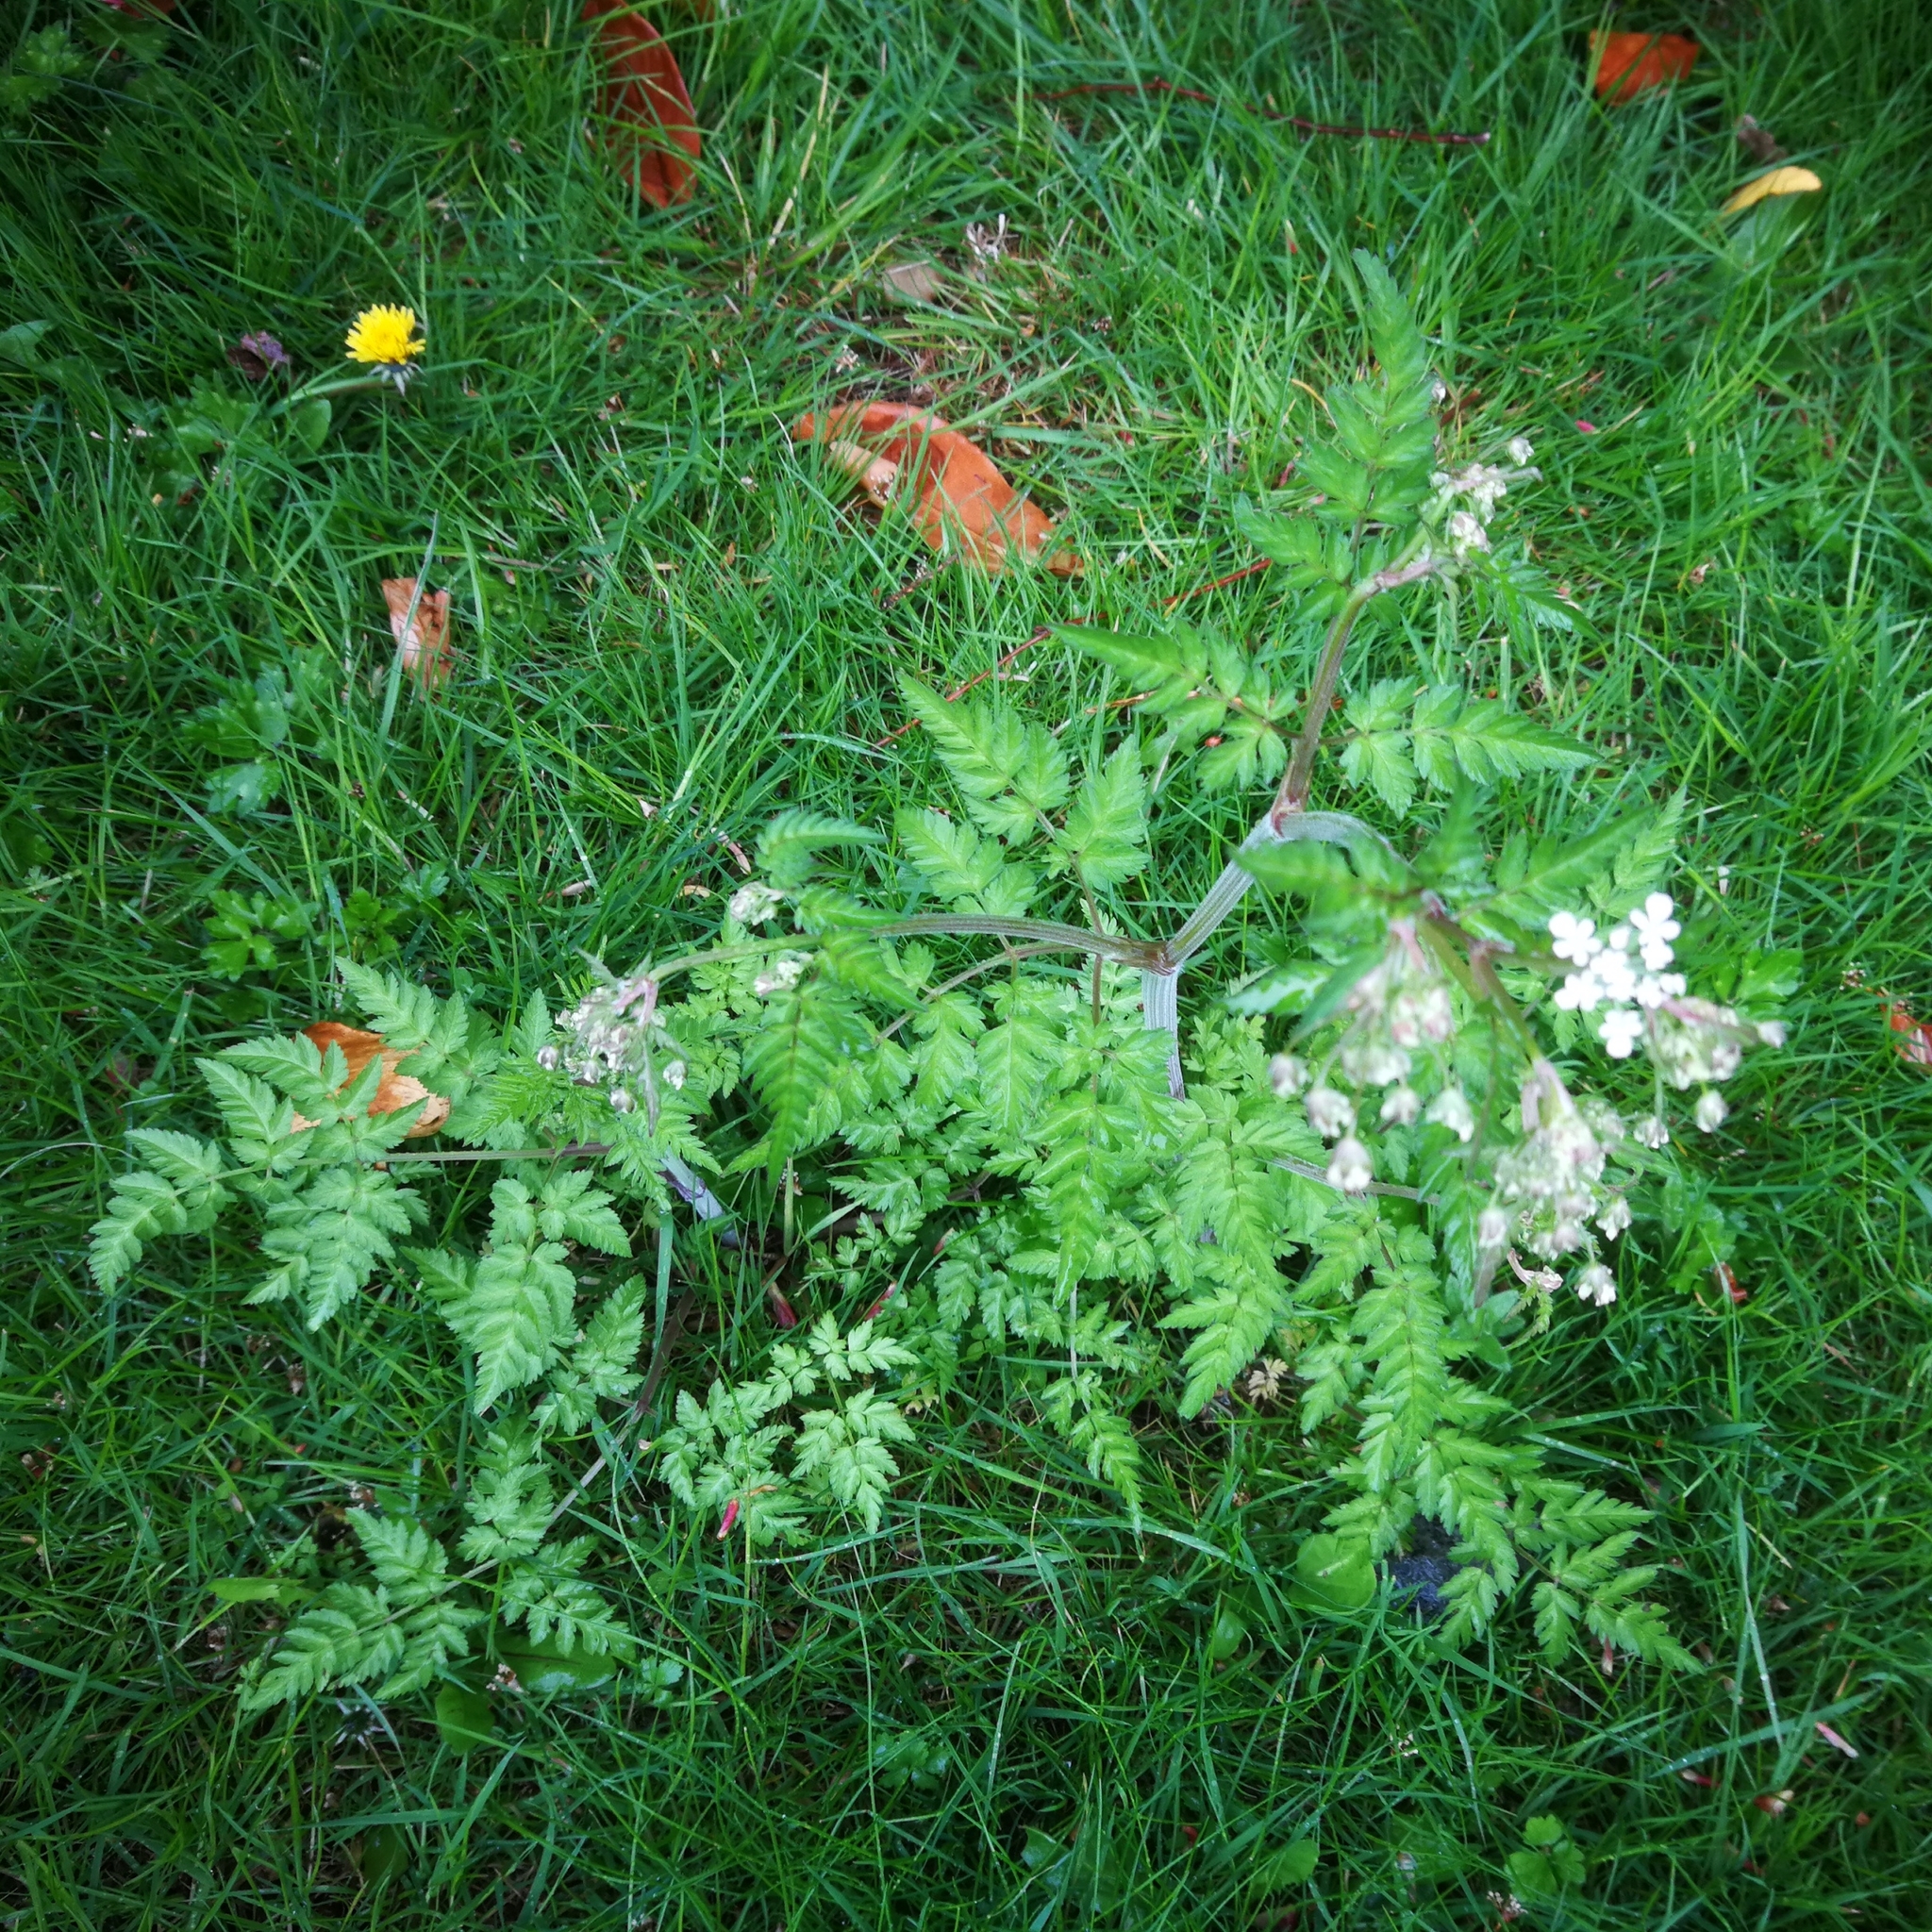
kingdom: Plantae
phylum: Tracheophyta
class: Magnoliopsida
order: Apiales
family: Apiaceae
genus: Anthriscus
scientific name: Anthriscus sylvestris
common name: Cow parsley
